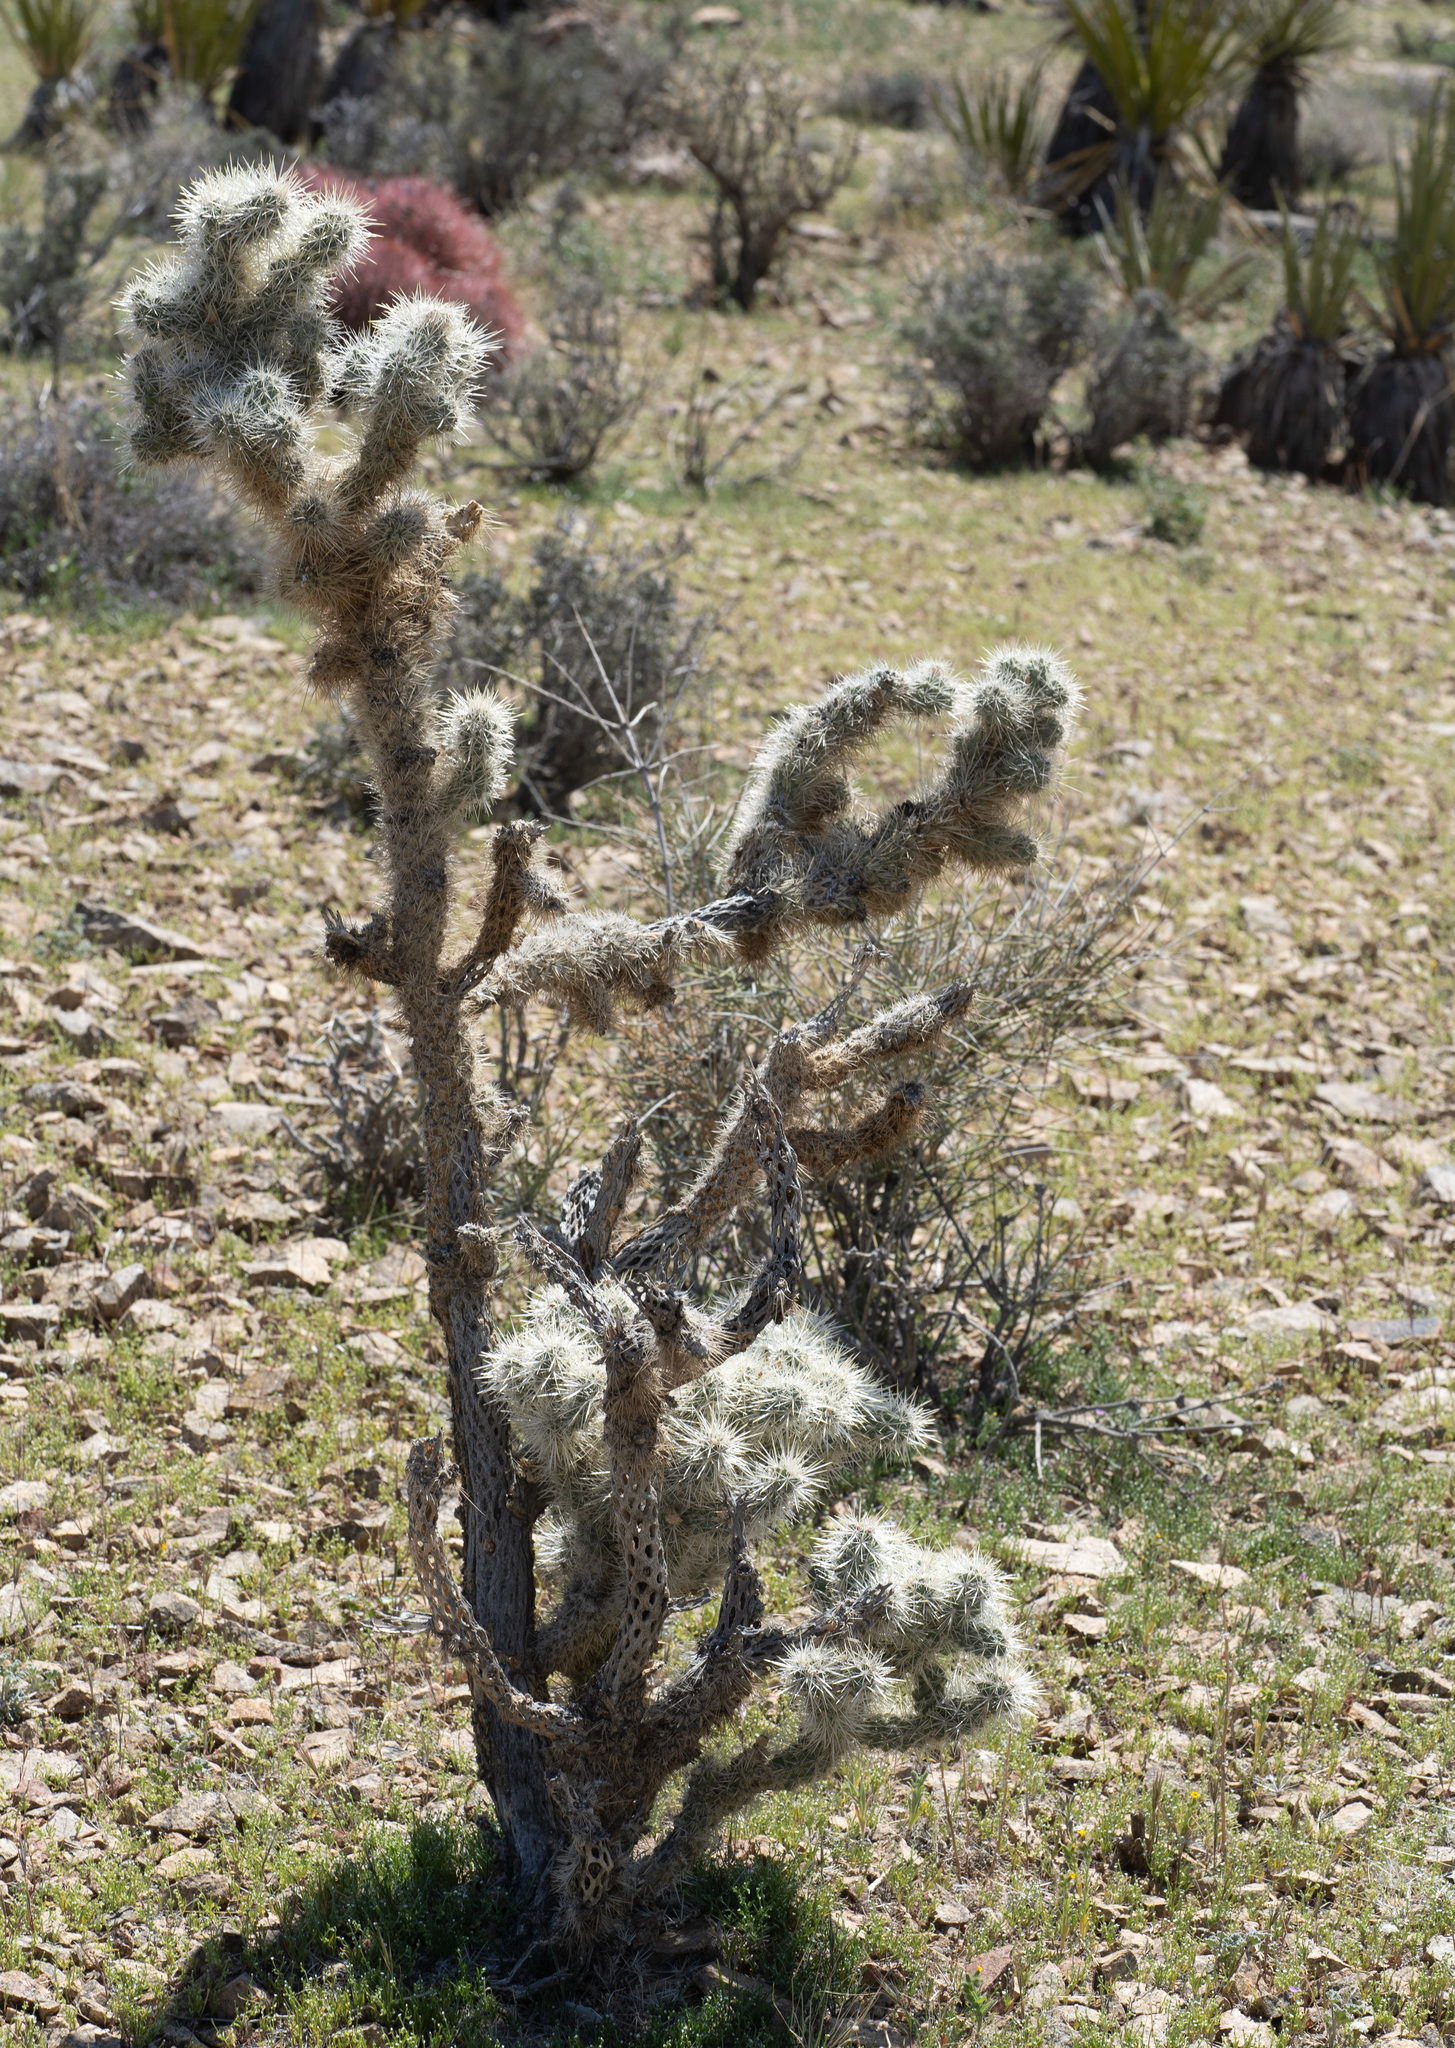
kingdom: Plantae
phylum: Tracheophyta
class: Magnoliopsida
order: Caryophyllales
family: Cactaceae
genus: Cylindropuntia
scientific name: Cylindropuntia echinocarpa
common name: Ground cholla
